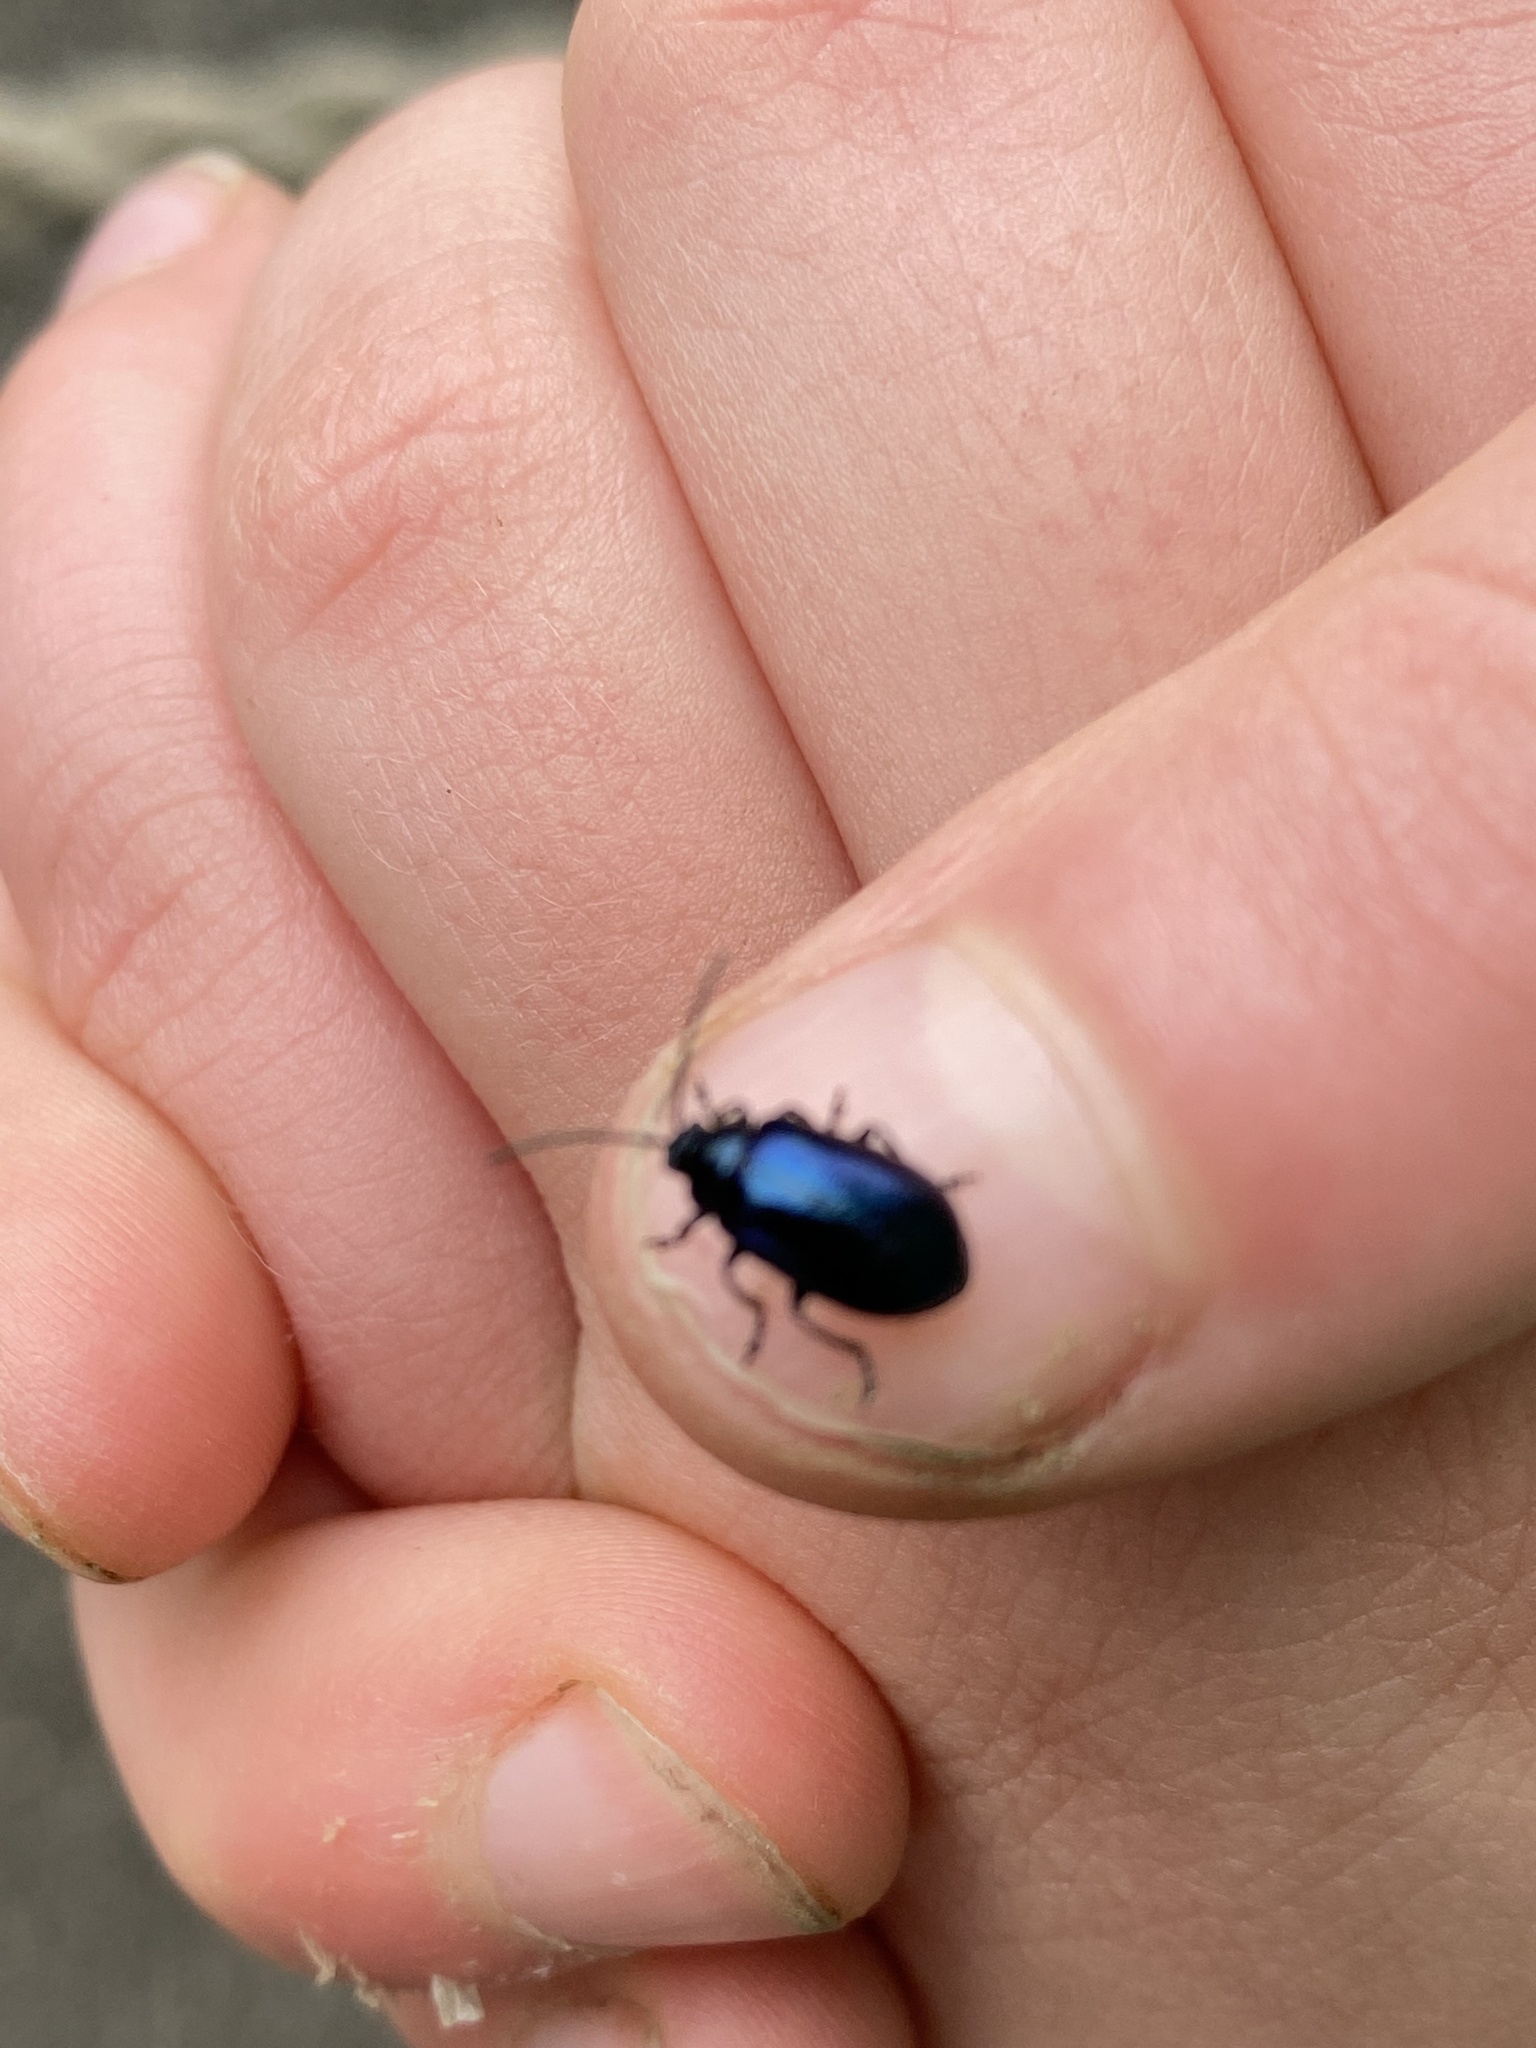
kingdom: Animalia
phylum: Arthropoda
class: Insecta
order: Coleoptera
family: Chrysomelidae
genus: Agelastica
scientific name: Agelastica alni
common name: Alder leaf beetle
